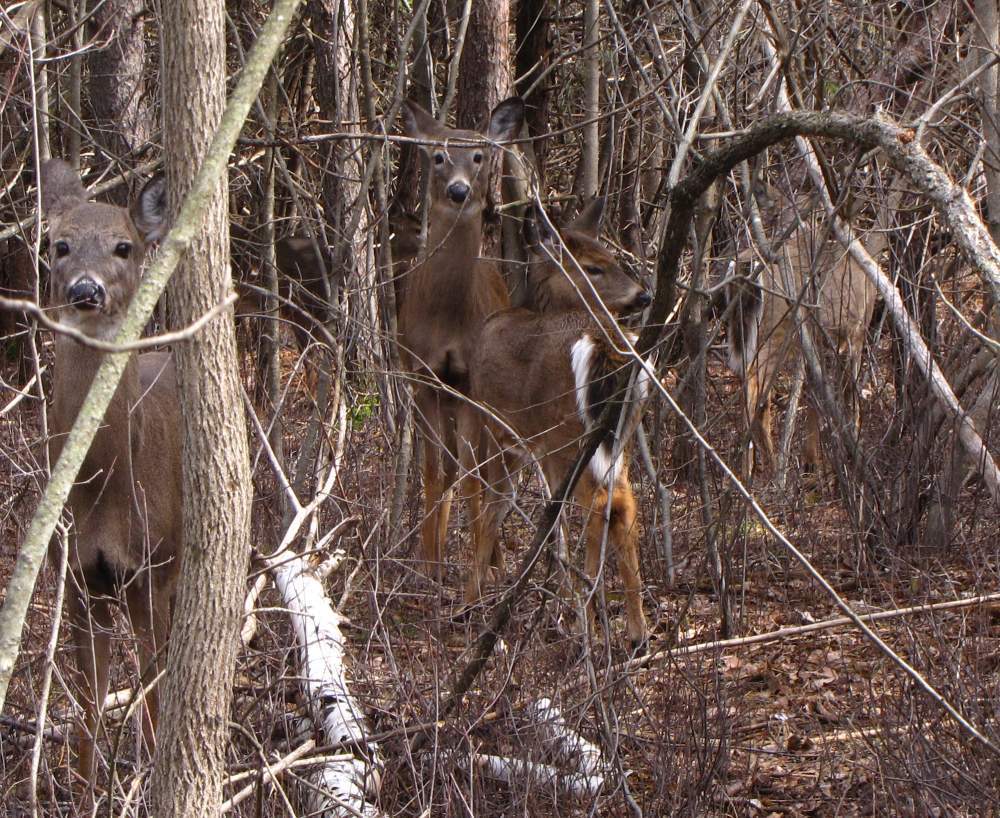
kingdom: Animalia
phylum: Chordata
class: Mammalia
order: Artiodactyla
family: Cervidae
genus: Odocoileus
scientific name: Odocoileus virginianus
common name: White-tailed deer
